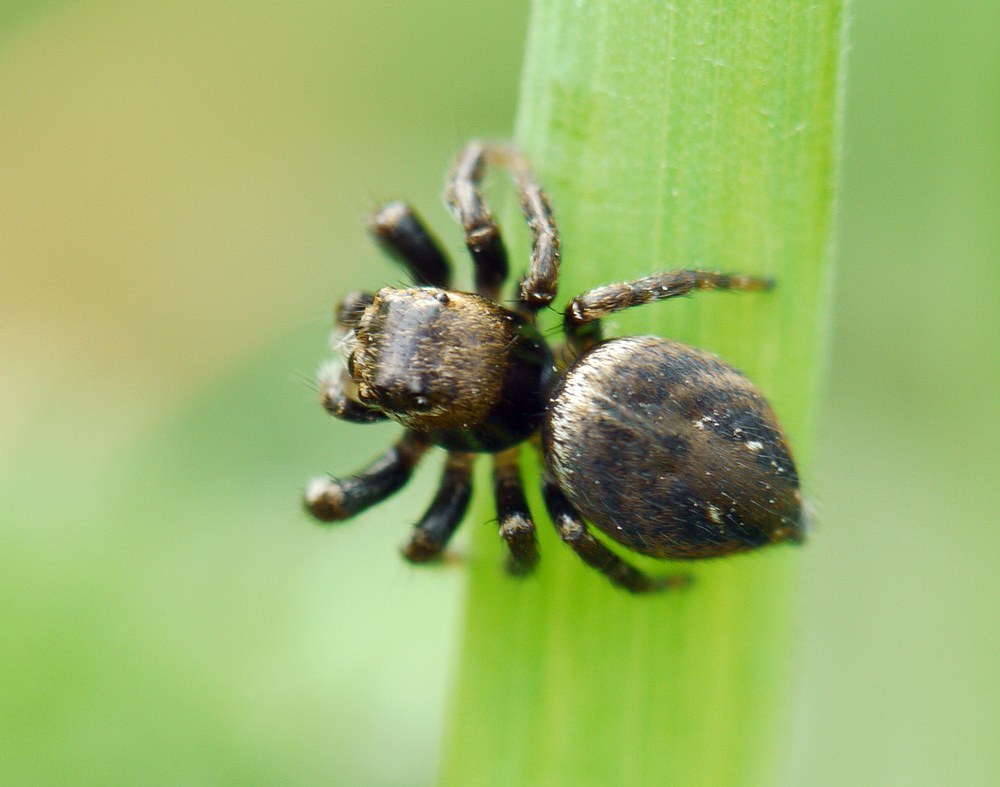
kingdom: Animalia
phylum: Arthropoda
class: Arachnida
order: Araneae
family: Salticidae
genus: Evarcha
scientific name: Evarcha arcuata
